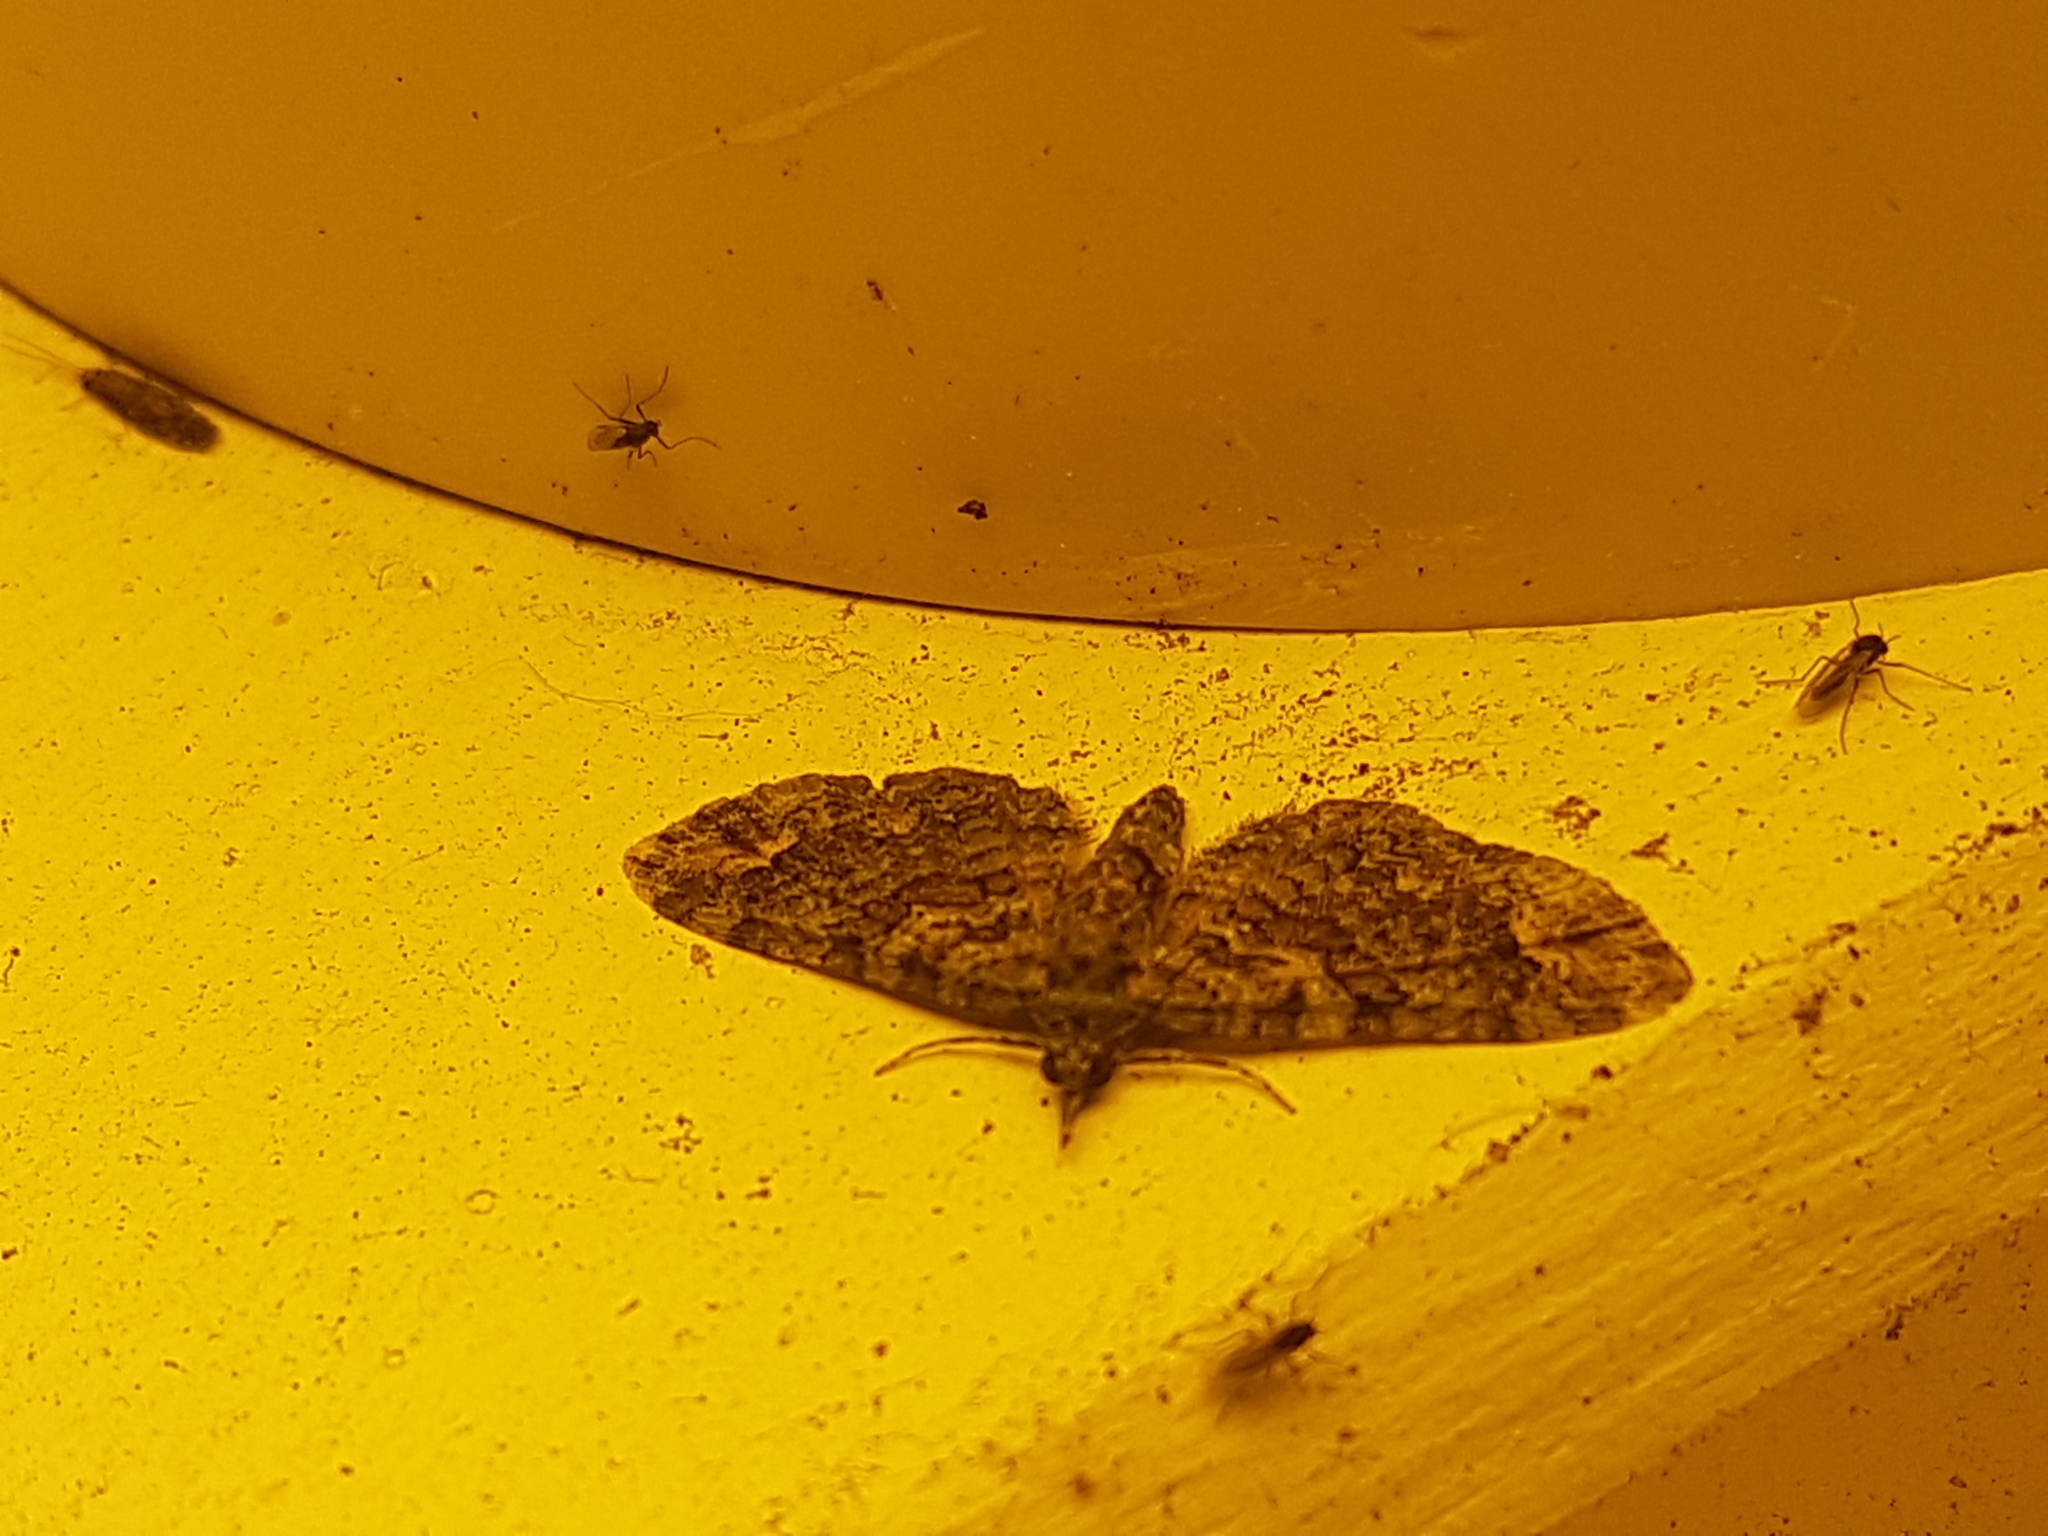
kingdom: Animalia
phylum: Arthropoda
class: Insecta
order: Lepidoptera
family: Geometridae
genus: Pasiphilodes
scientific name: Pasiphilodes testulata
